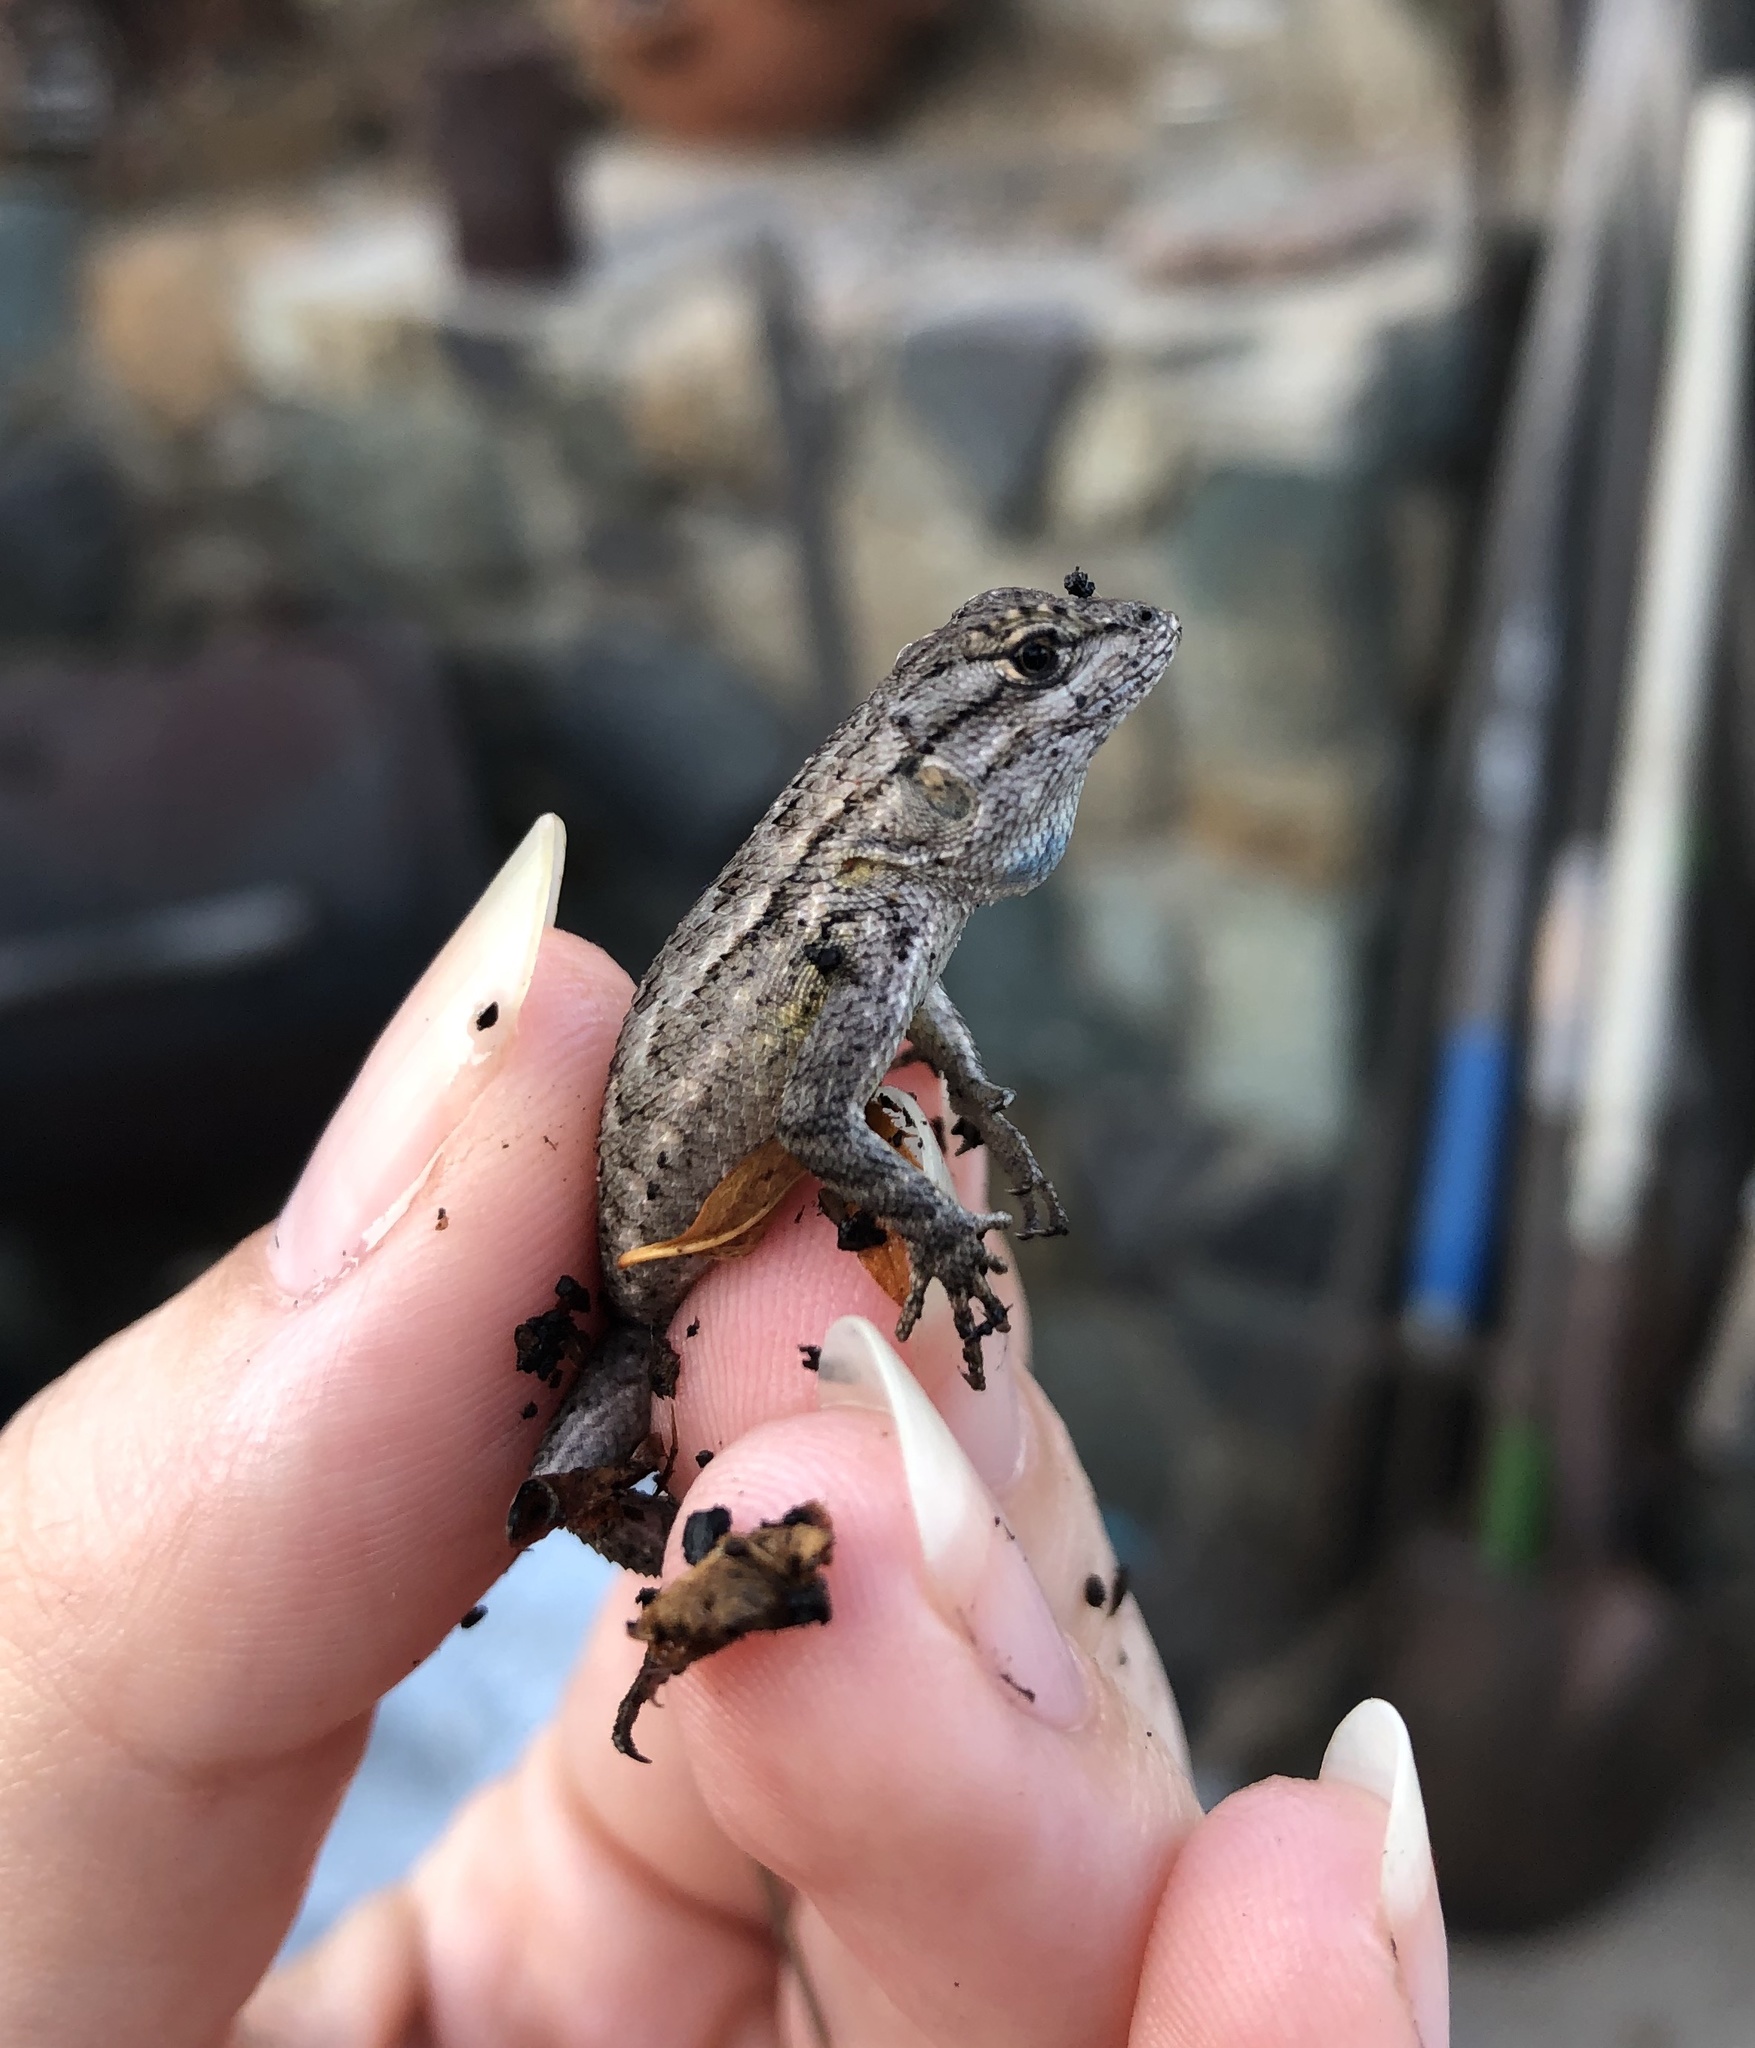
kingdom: Animalia
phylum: Chordata
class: Squamata
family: Phrynosomatidae
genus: Sceloporus
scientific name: Sceloporus occidentalis
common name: Western fence lizard
